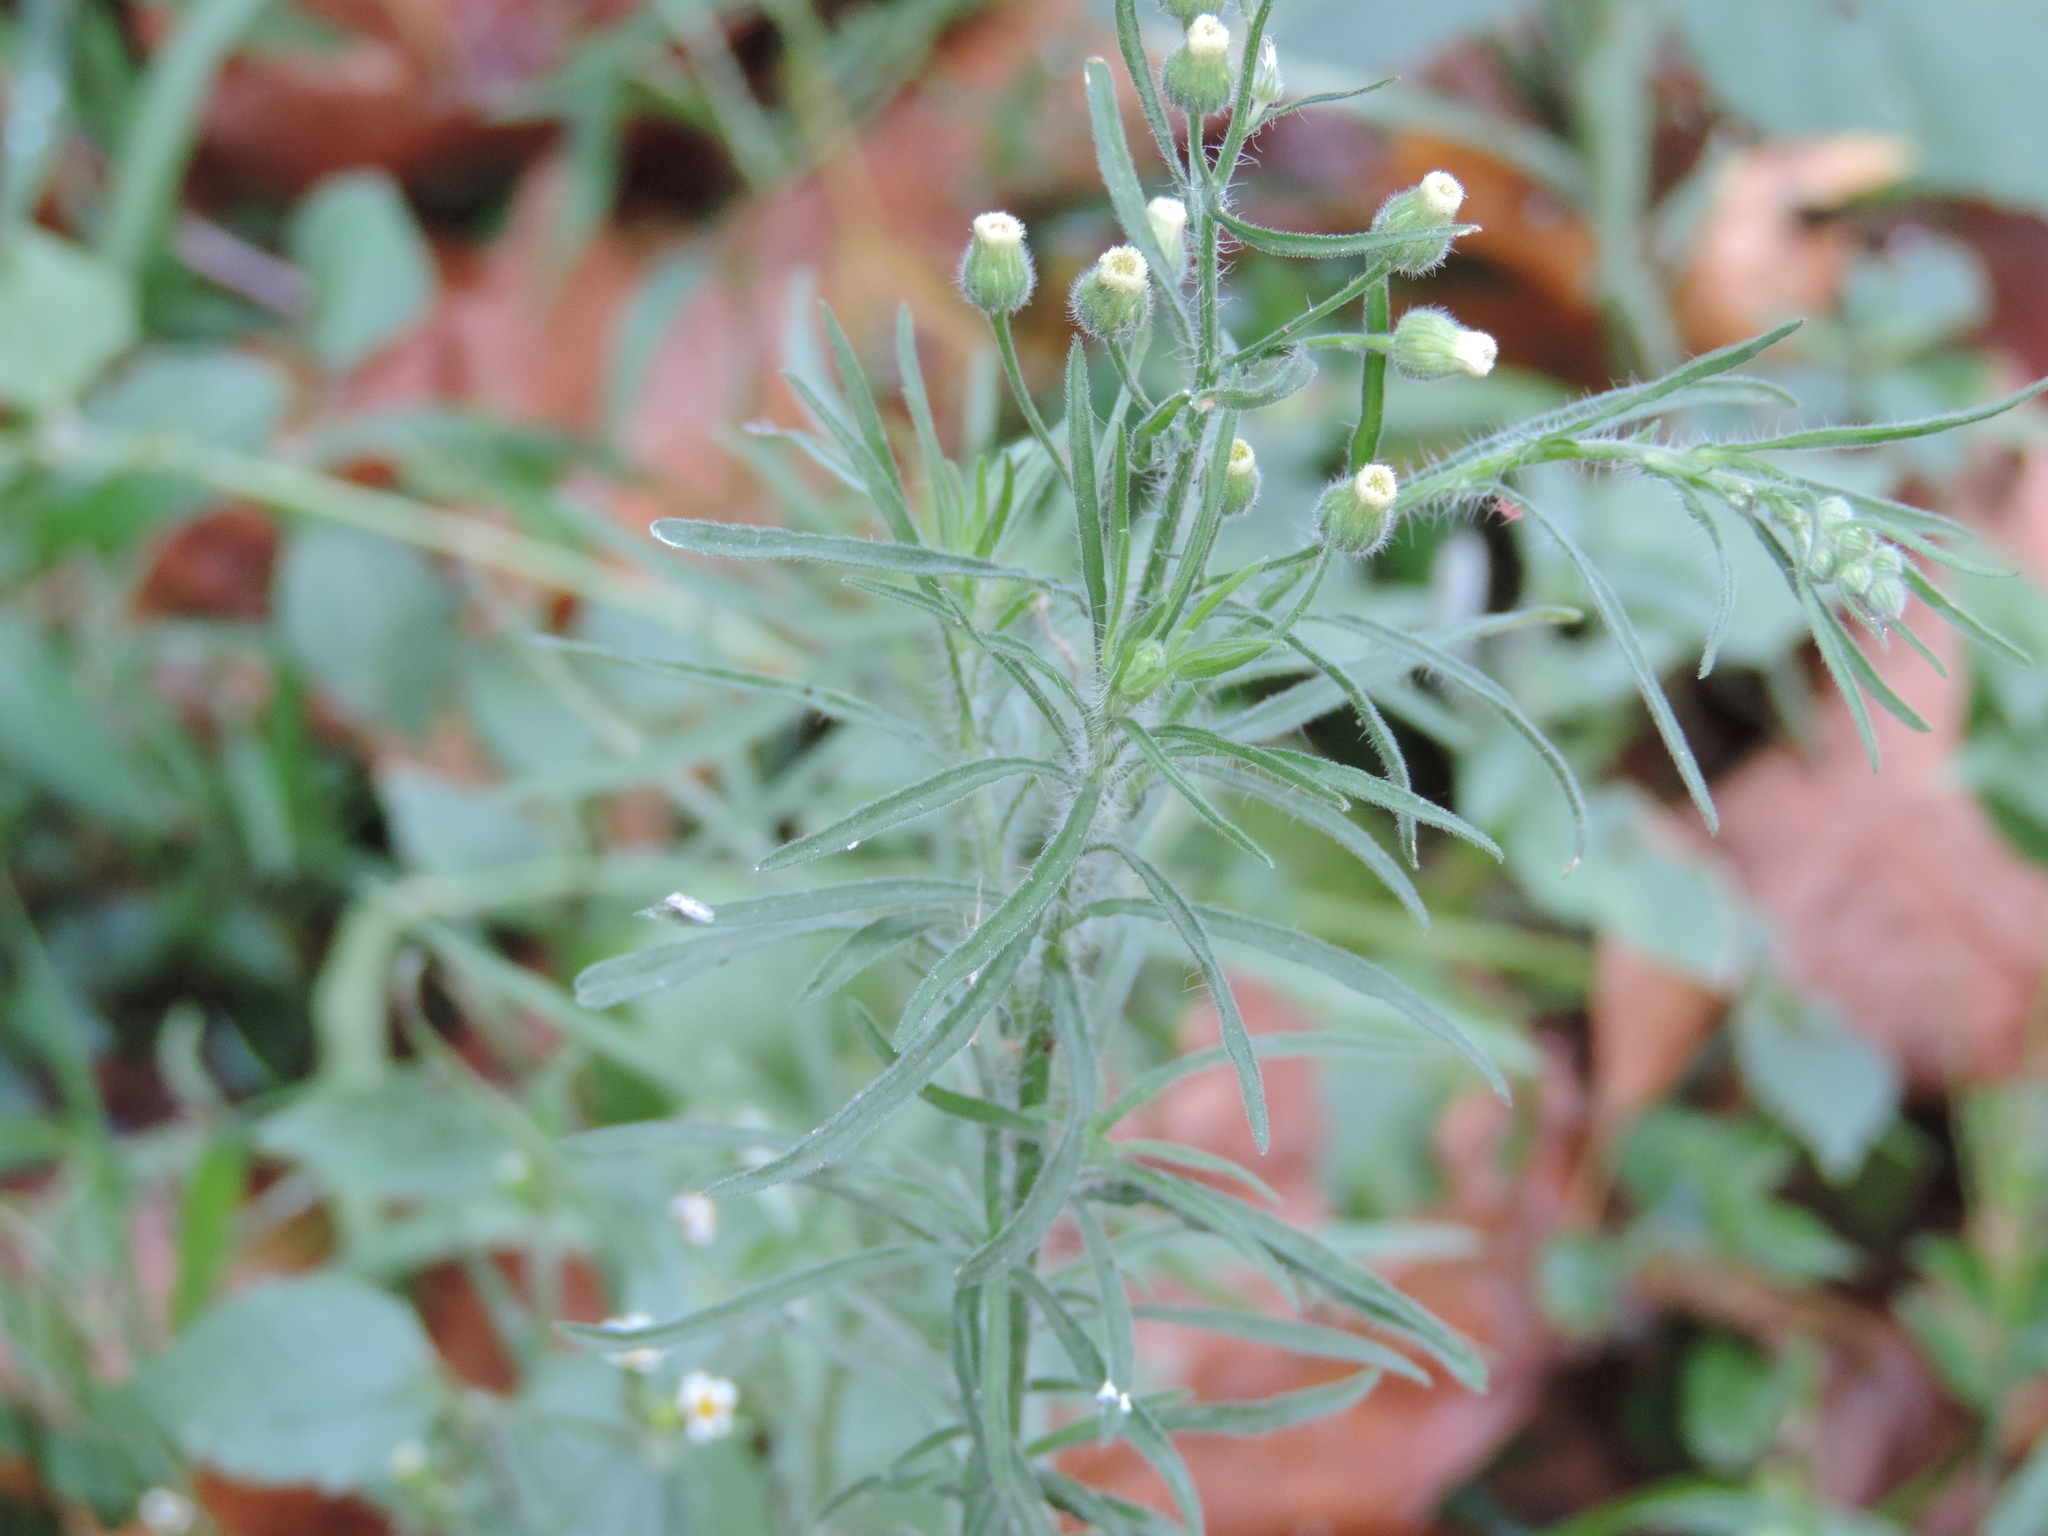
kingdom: Plantae
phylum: Tracheophyta
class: Magnoliopsida
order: Asterales
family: Asteraceae
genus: Erigeron
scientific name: Erigeron bonariensis
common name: Argentine fleabane
